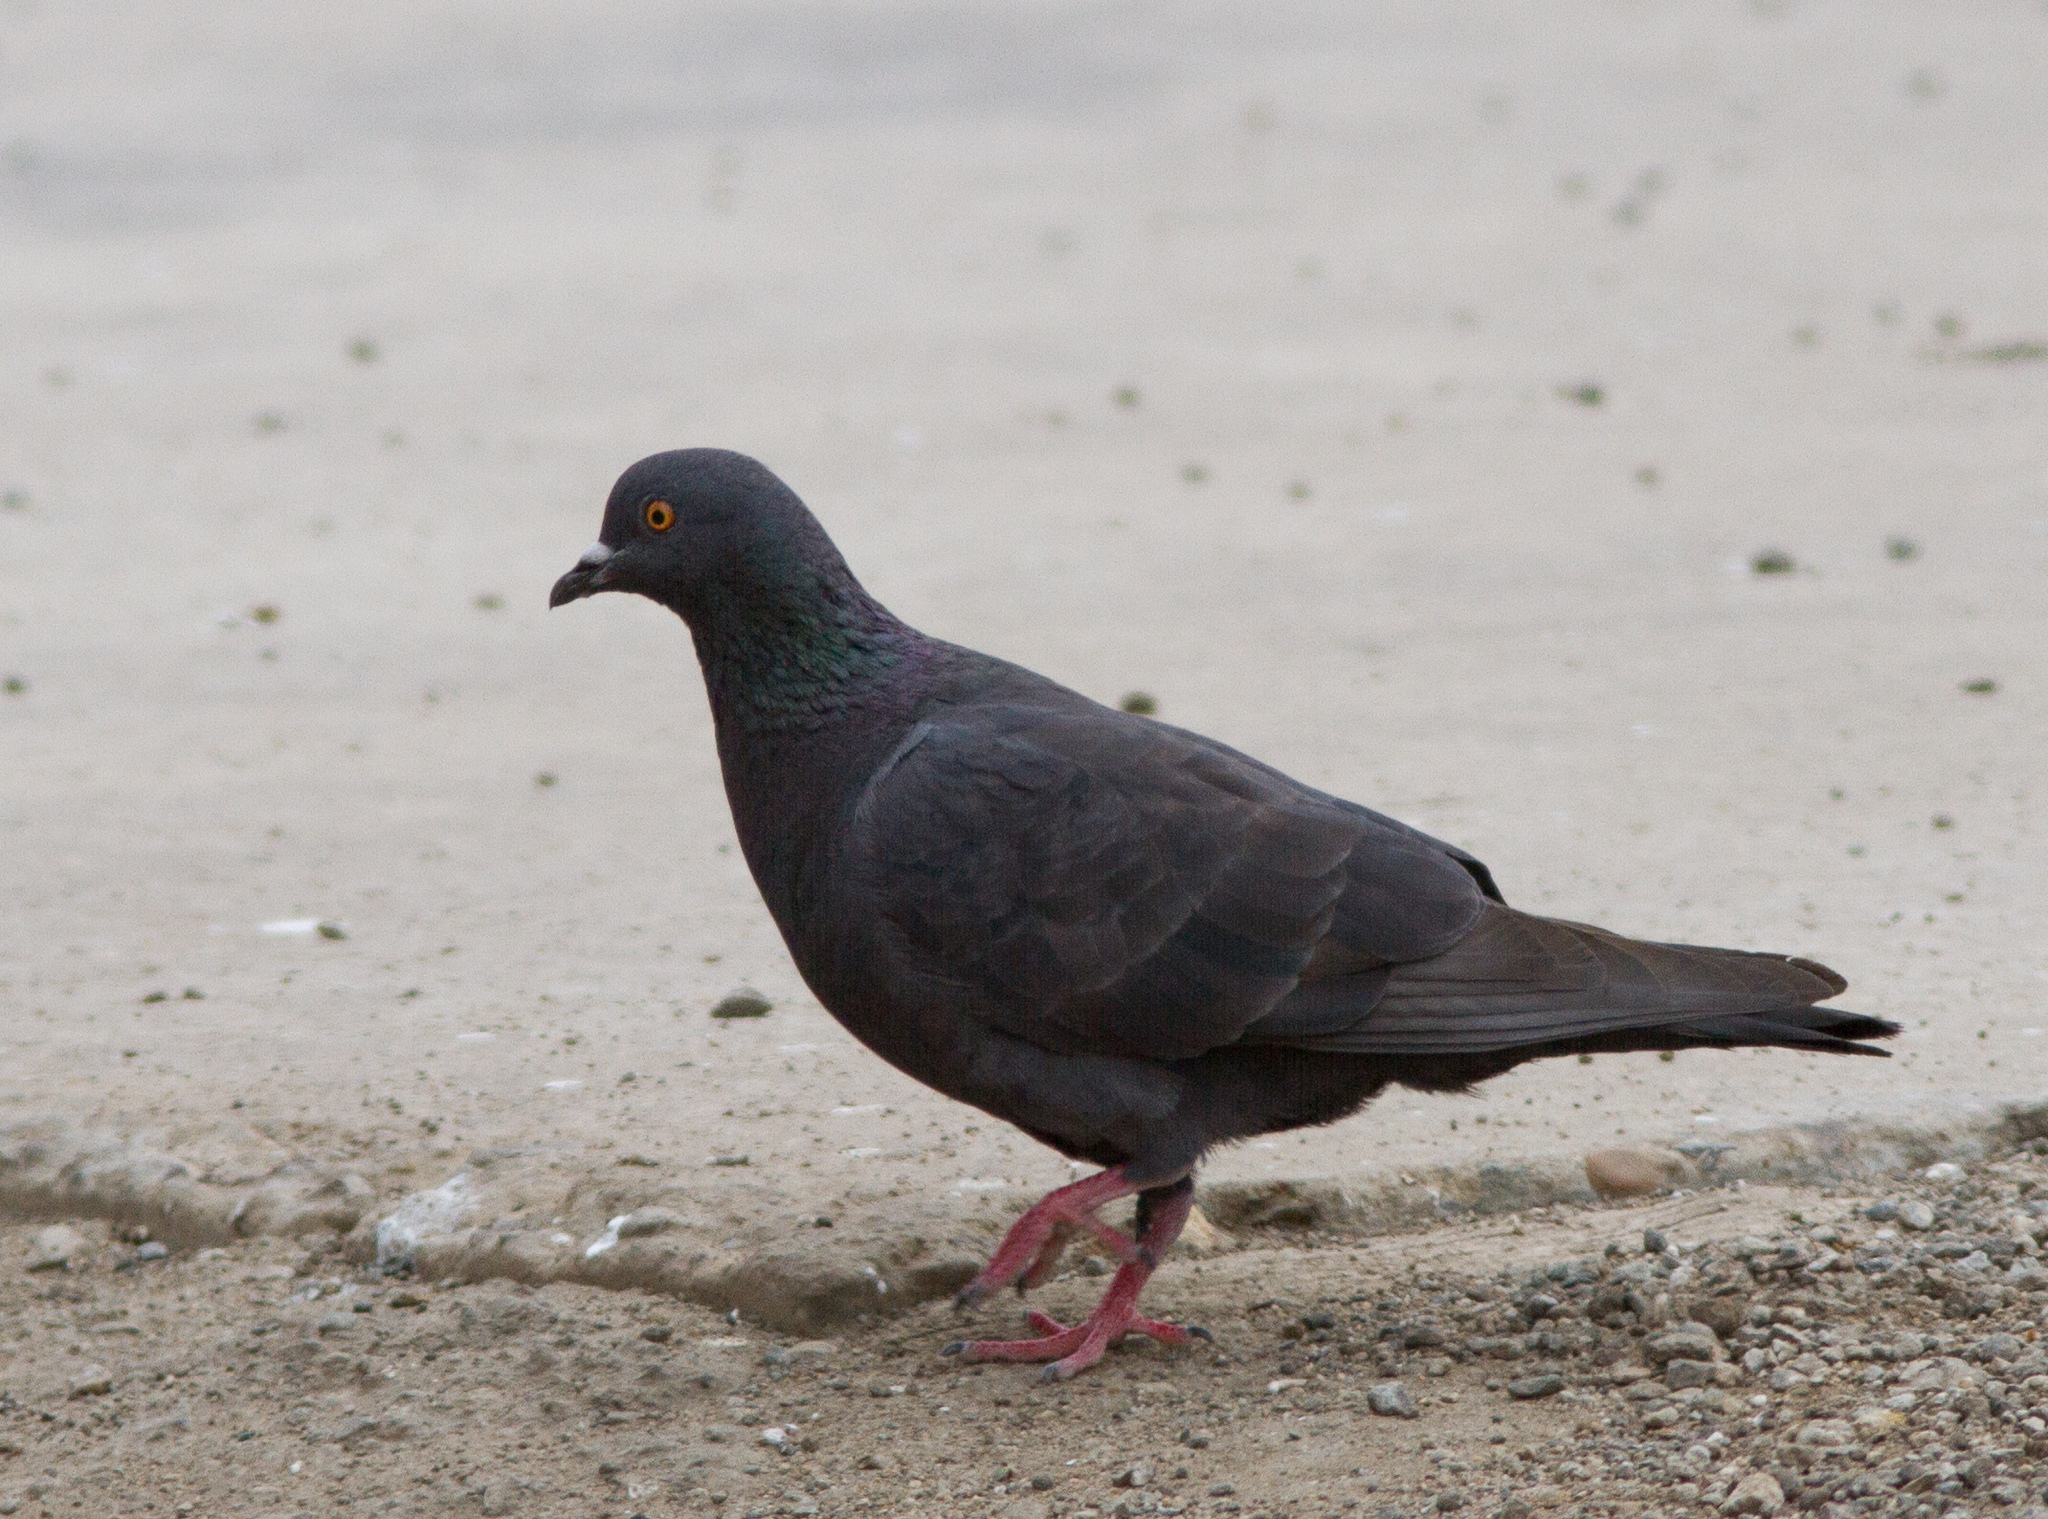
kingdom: Animalia
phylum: Chordata
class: Aves
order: Columbiformes
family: Columbidae
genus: Columba
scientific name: Columba livia
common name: Rock pigeon
